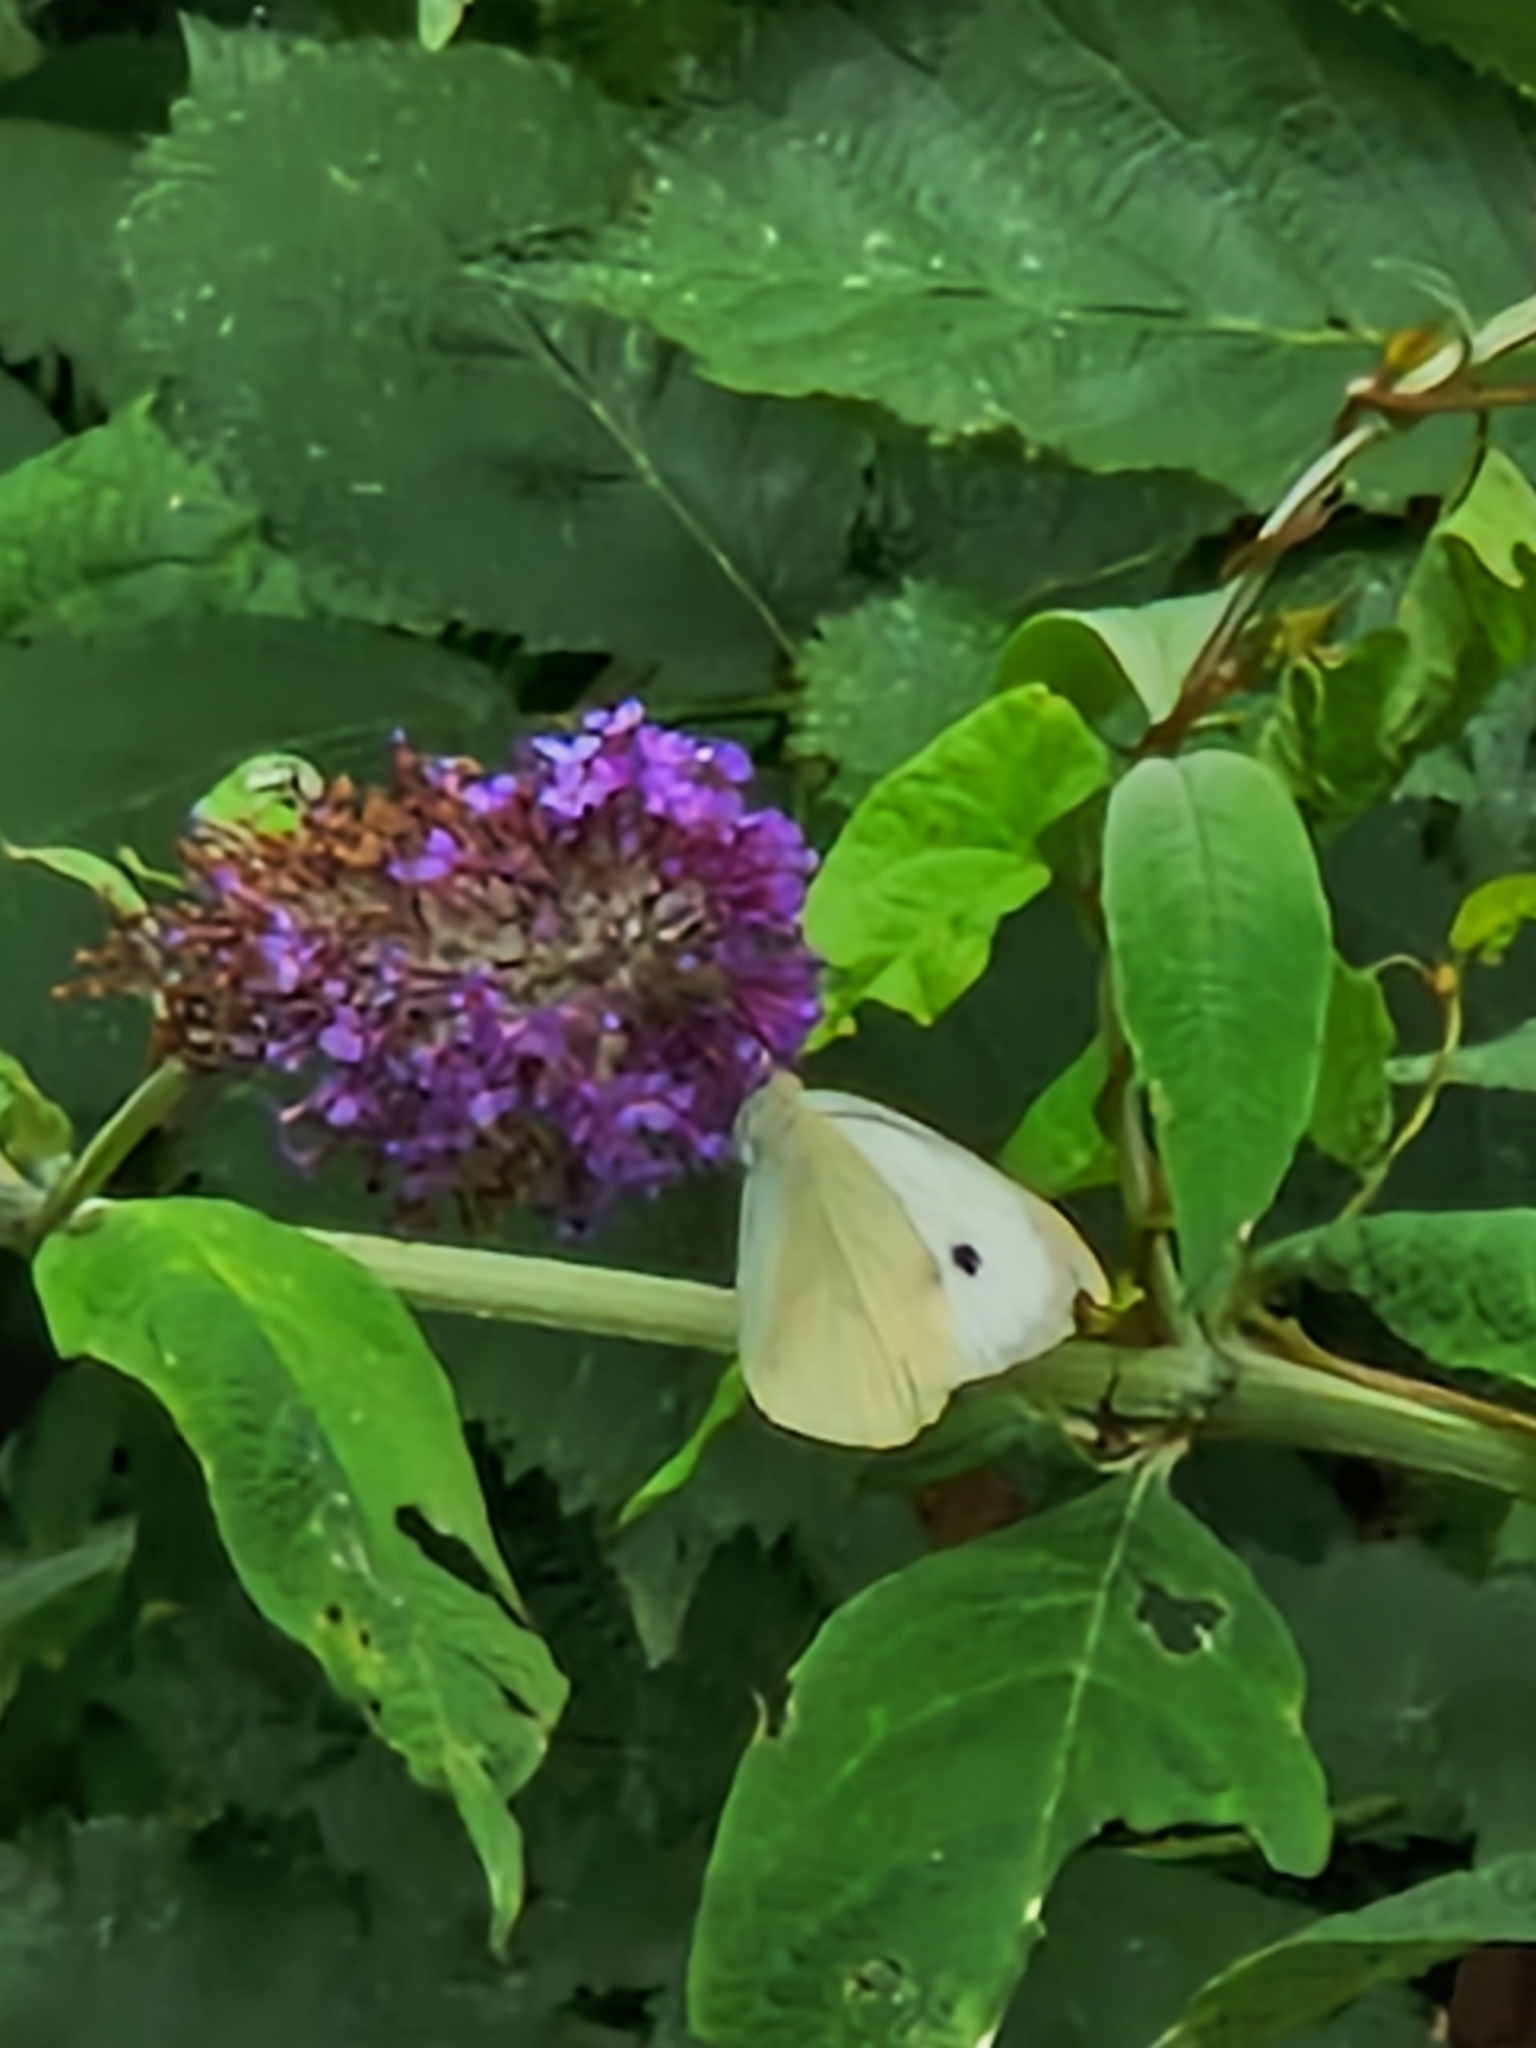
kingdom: Animalia
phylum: Arthropoda
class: Insecta
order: Lepidoptera
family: Pieridae
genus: Pieris
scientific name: Pieris brassicae
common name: Large white
